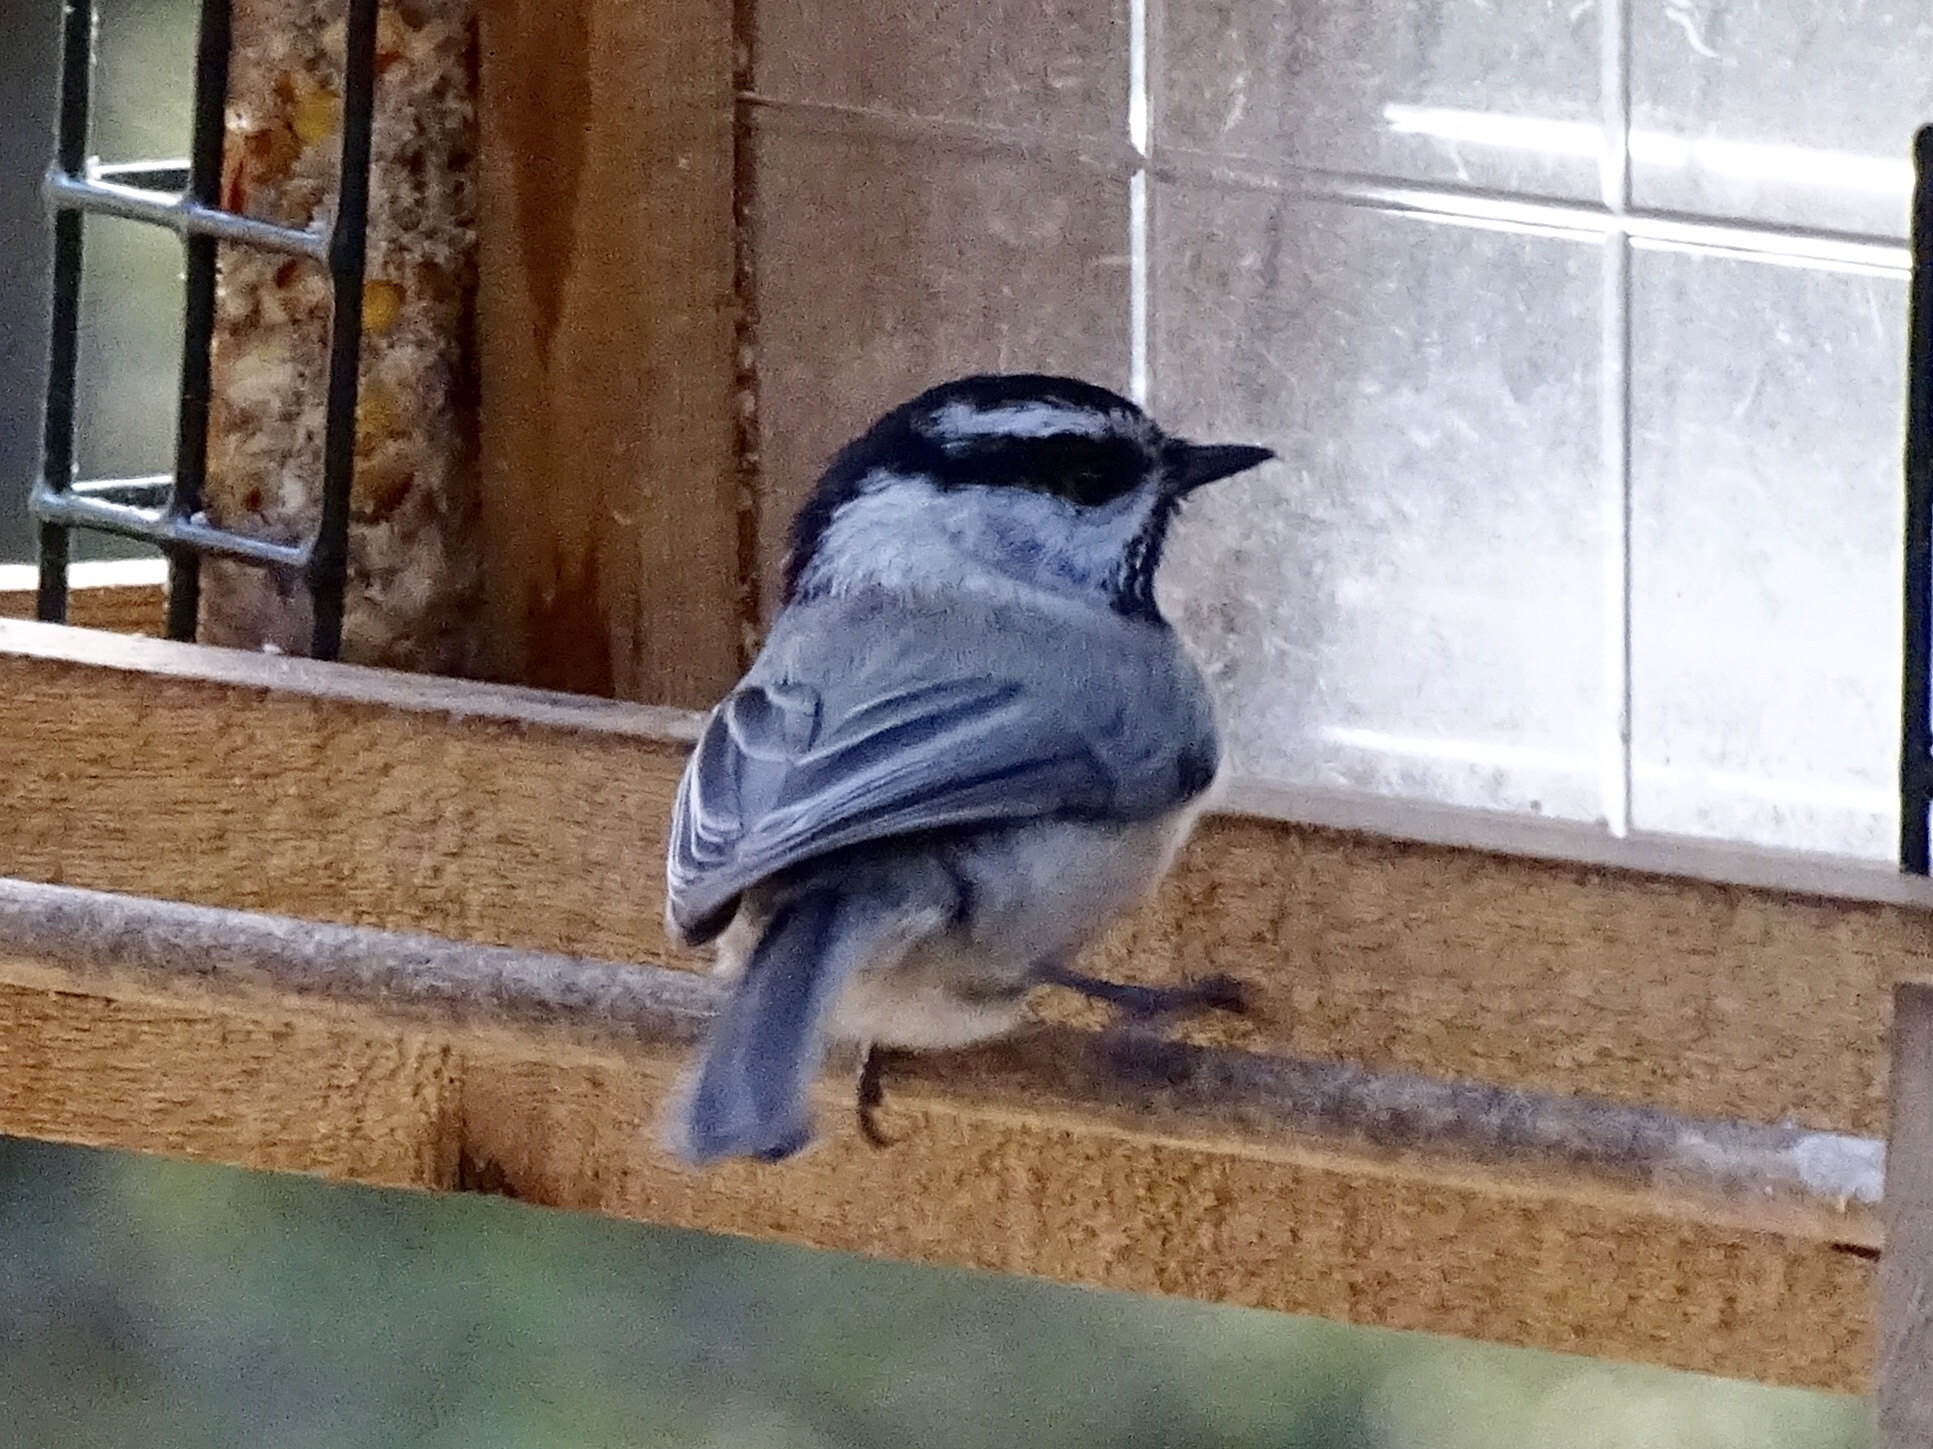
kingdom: Animalia
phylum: Chordata
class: Aves
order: Passeriformes
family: Paridae
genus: Poecile
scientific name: Poecile gambeli
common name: Mountain chickadee
